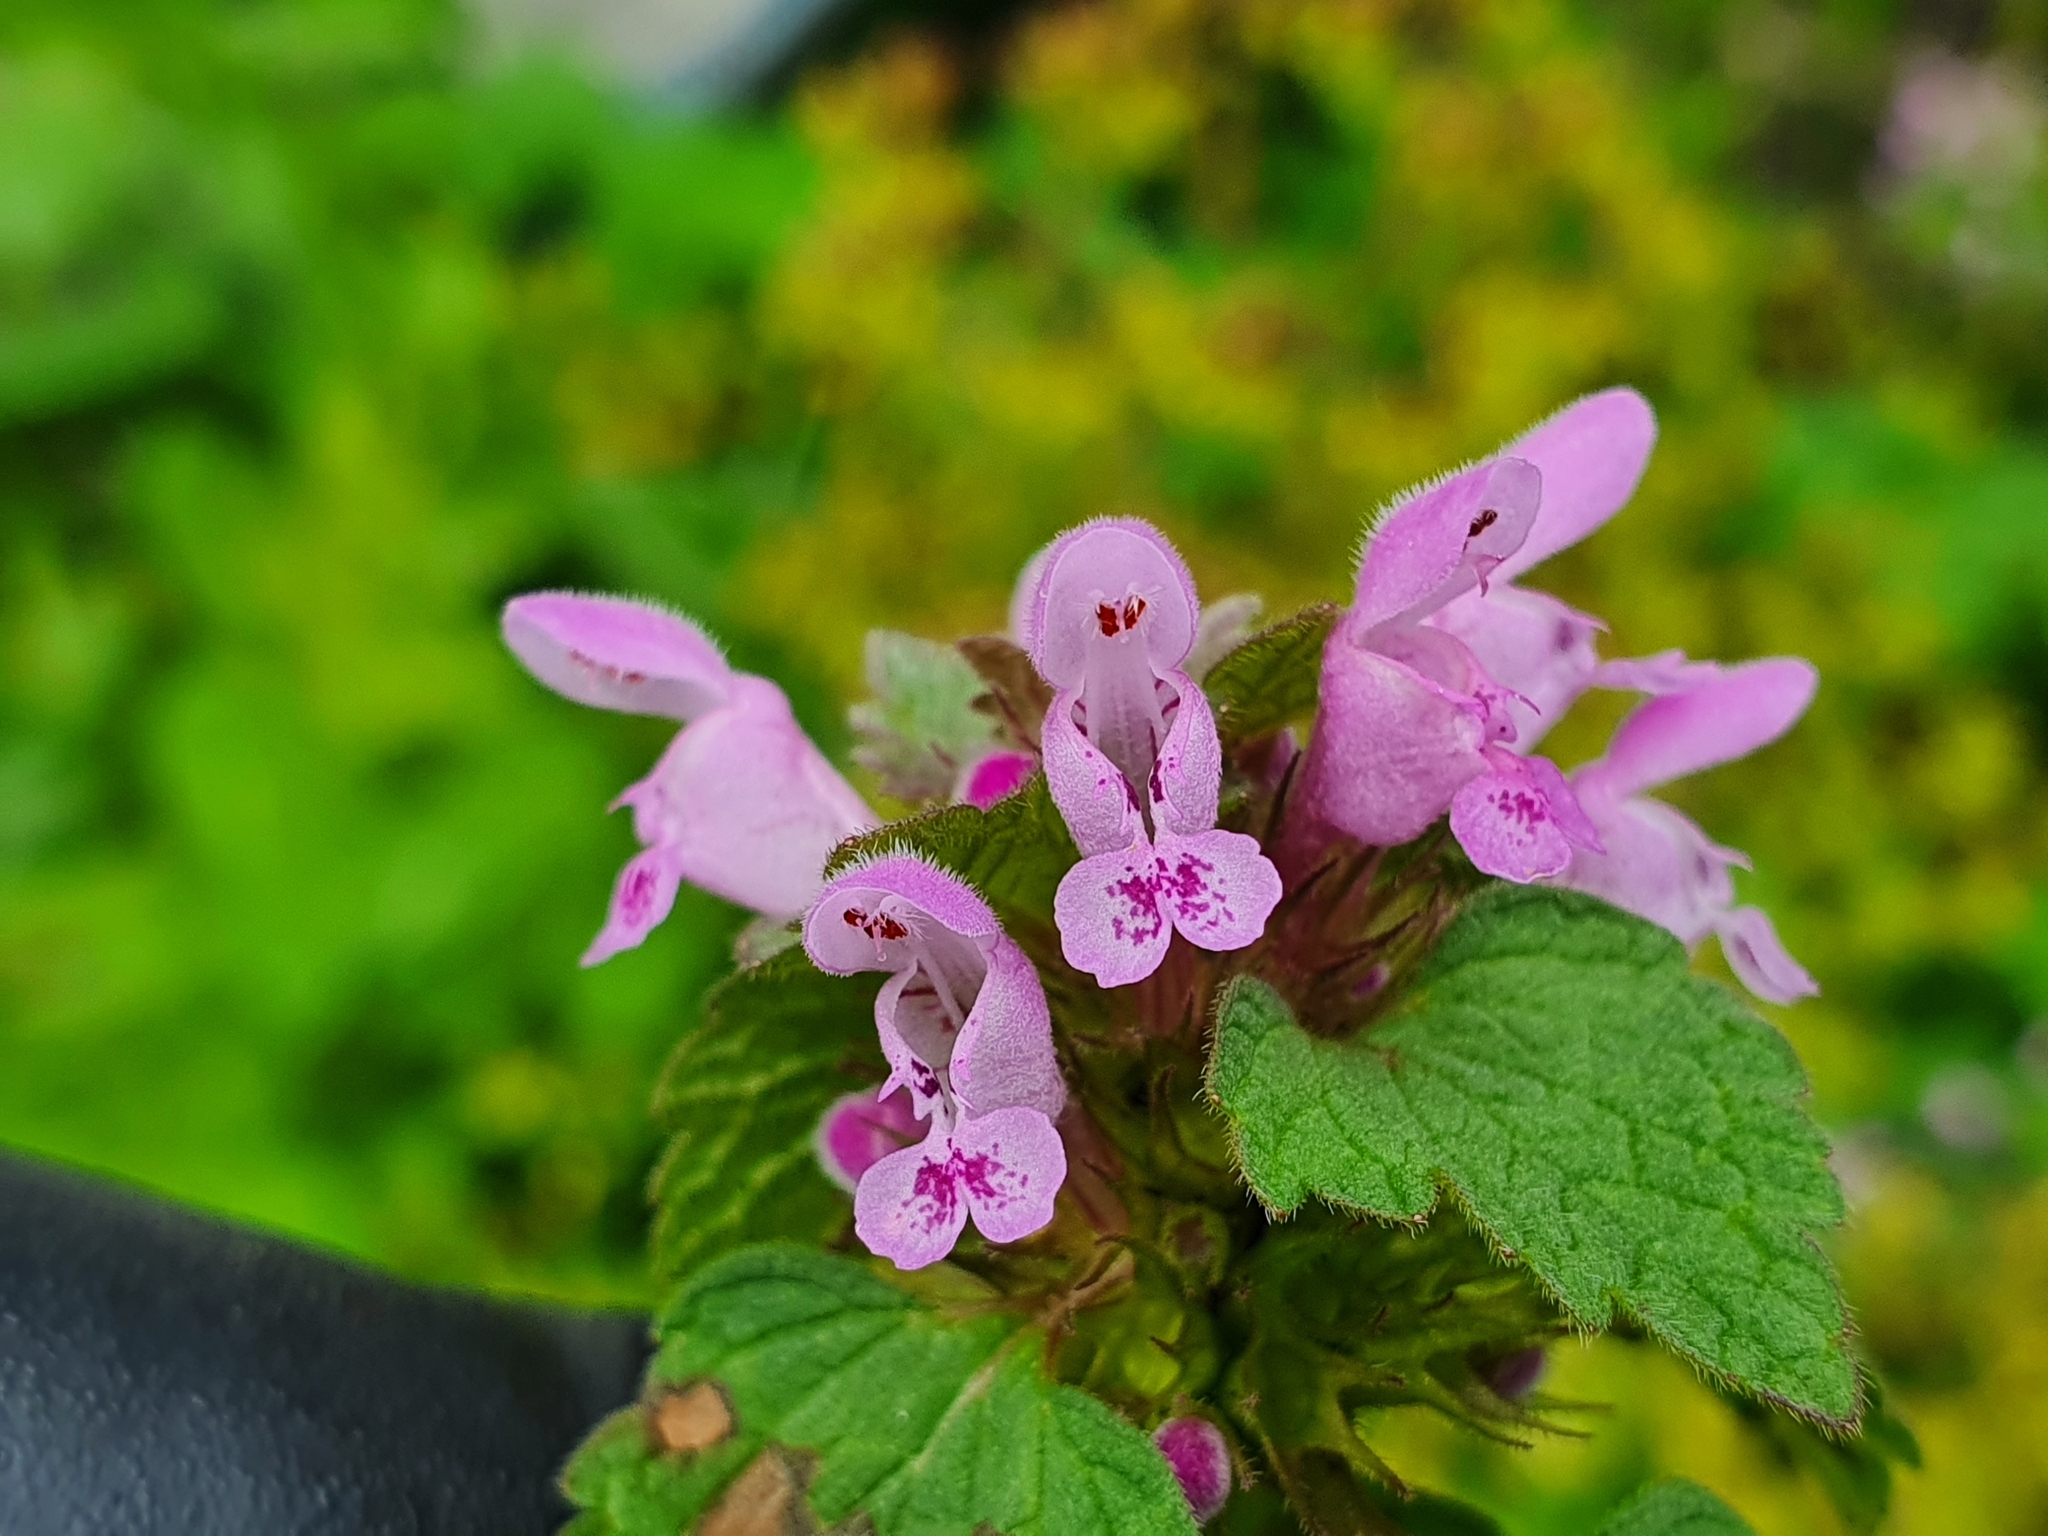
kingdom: Plantae
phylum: Tracheophyta
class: Magnoliopsida
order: Lamiales
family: Lamiaceae
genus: Lamium
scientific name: Lamium purpureum
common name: Red dead-nettle
